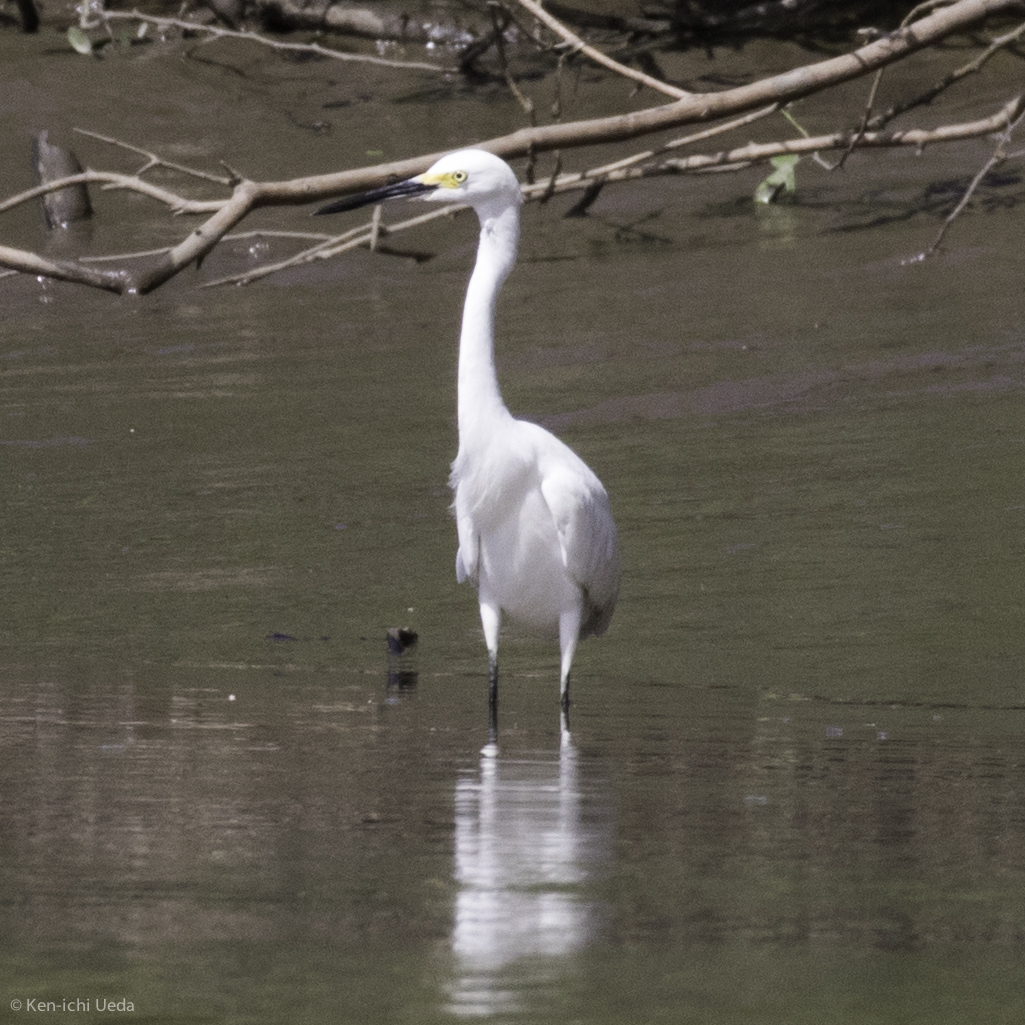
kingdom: Animalia
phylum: Chordata
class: Aves
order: Pelecaniformes
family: Ardeidae
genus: Egretta
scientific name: Egretta thula
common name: Snowy egret
